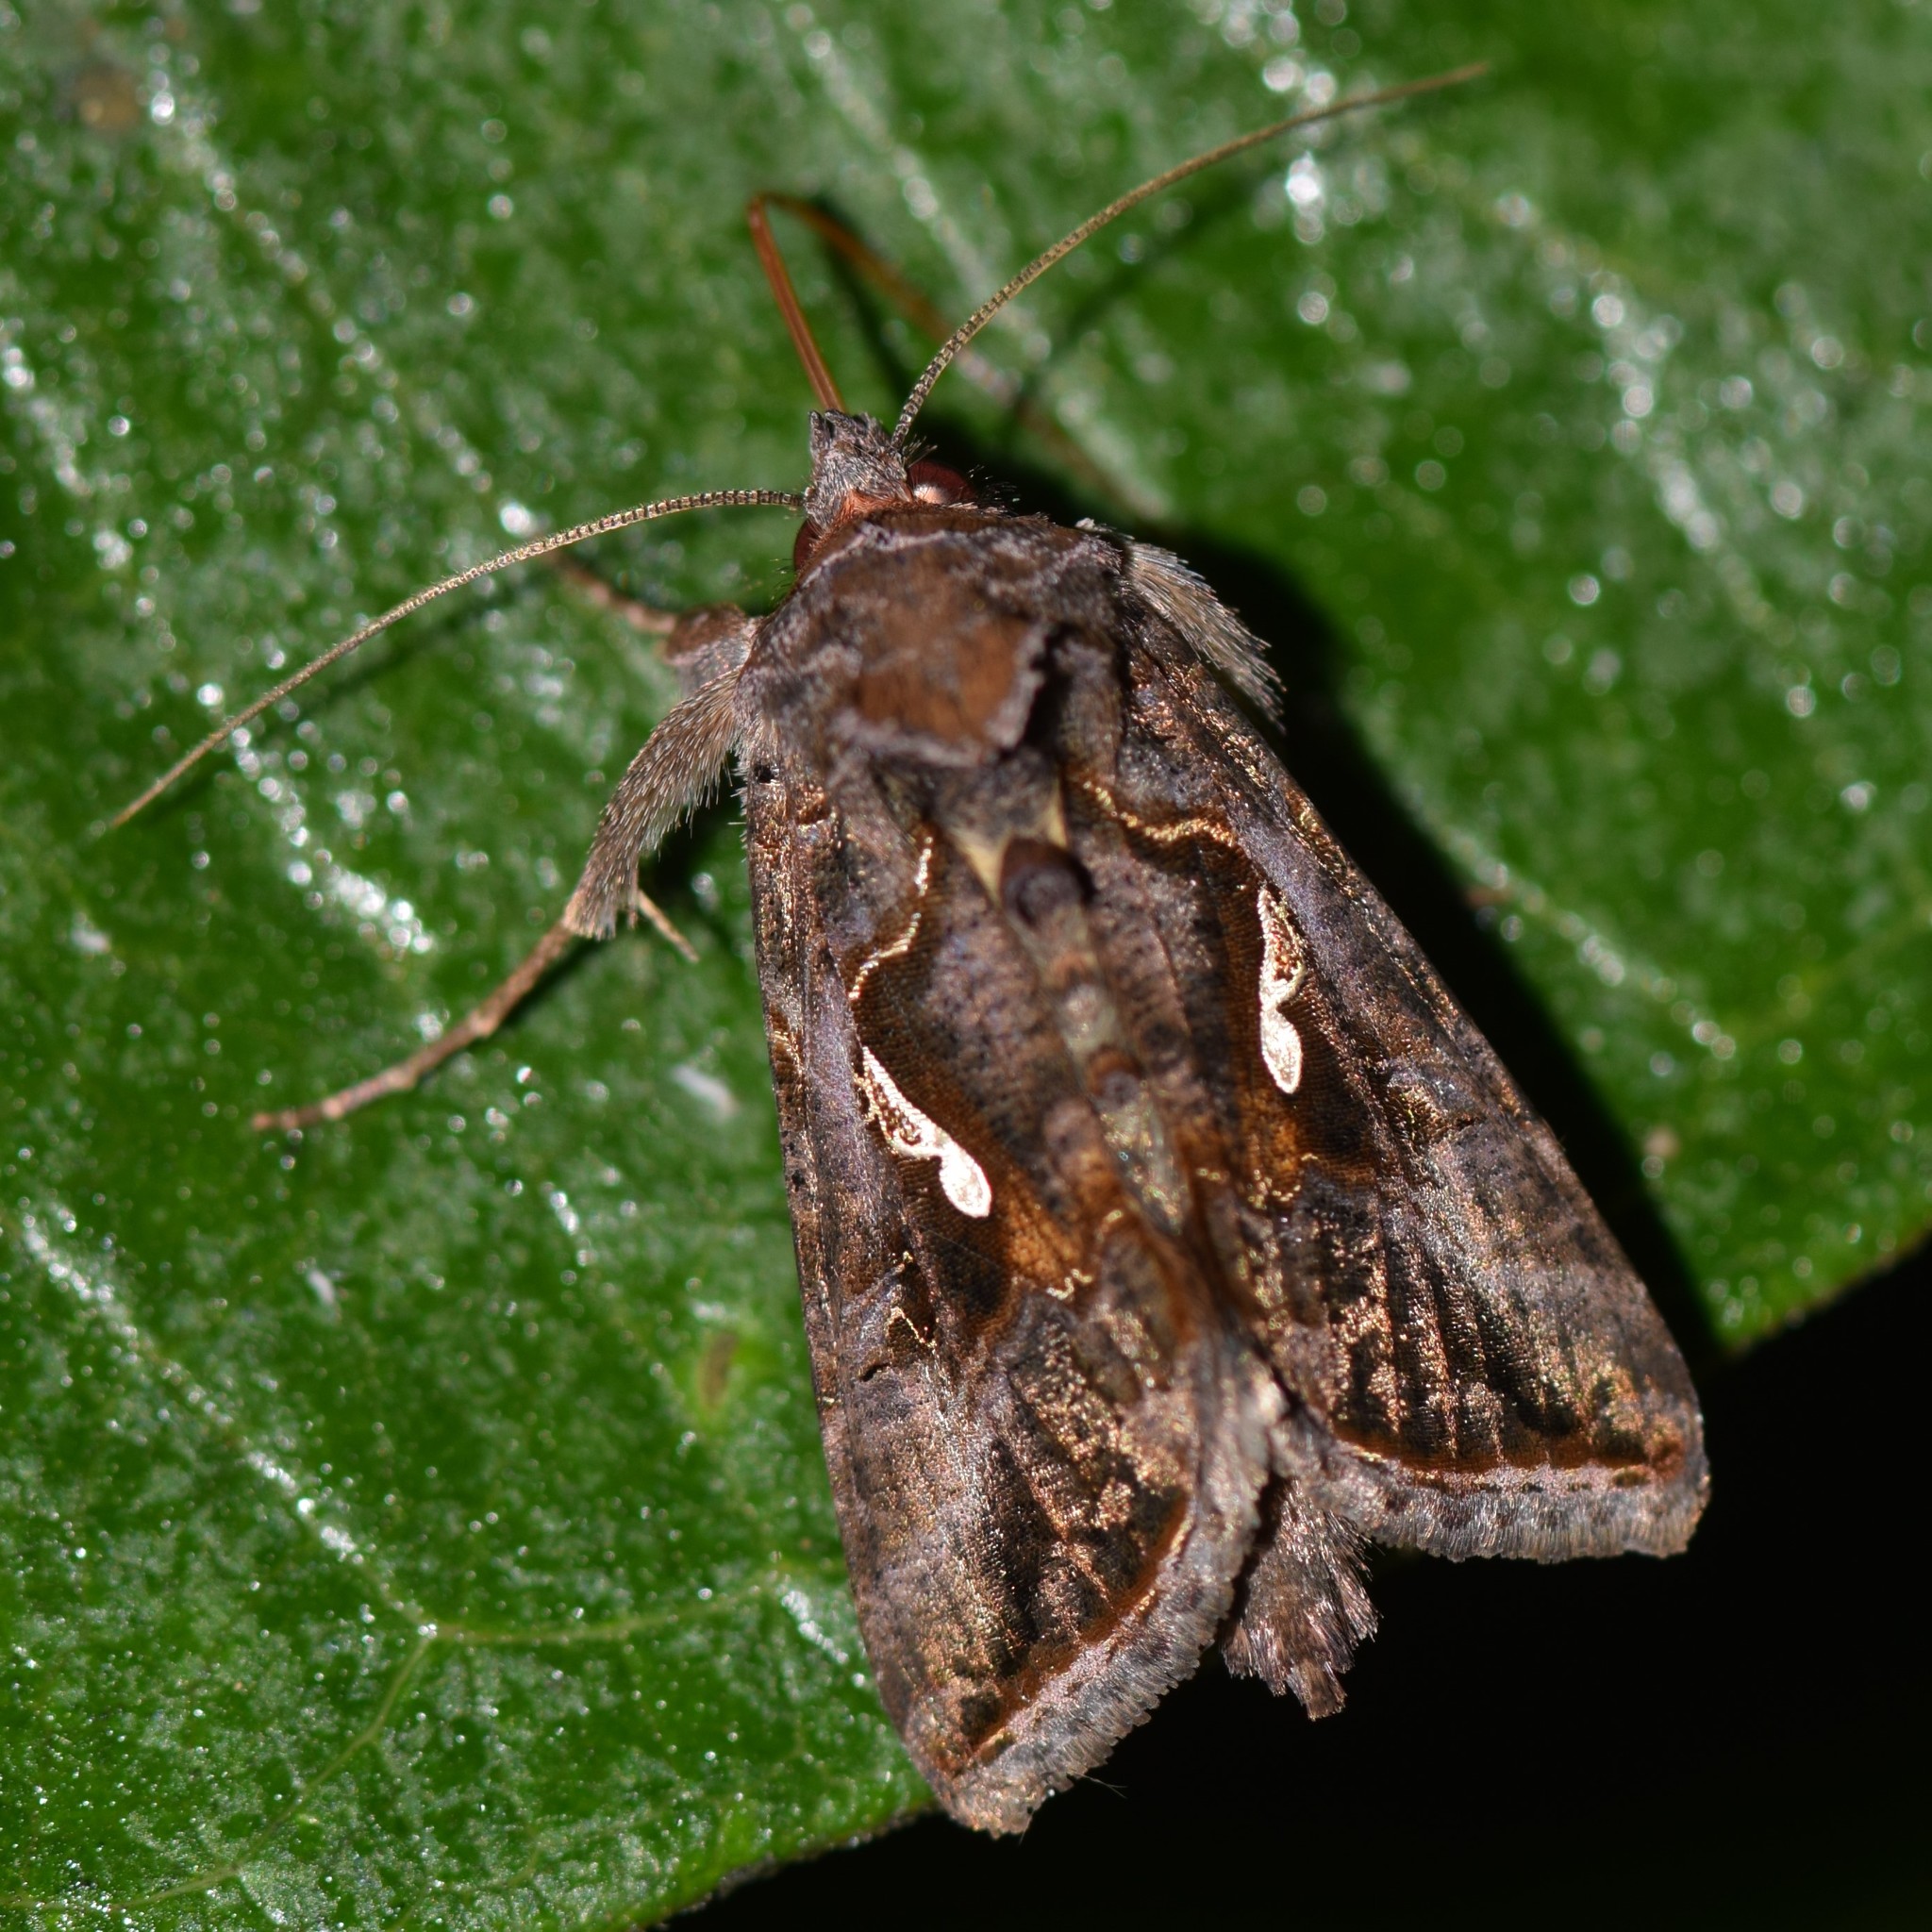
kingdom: Animalia
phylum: Arthropoda
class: Insecta
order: Lepidoptera
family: Noctuidae
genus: Autographa
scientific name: Autographa precationis
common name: Common looper moth
